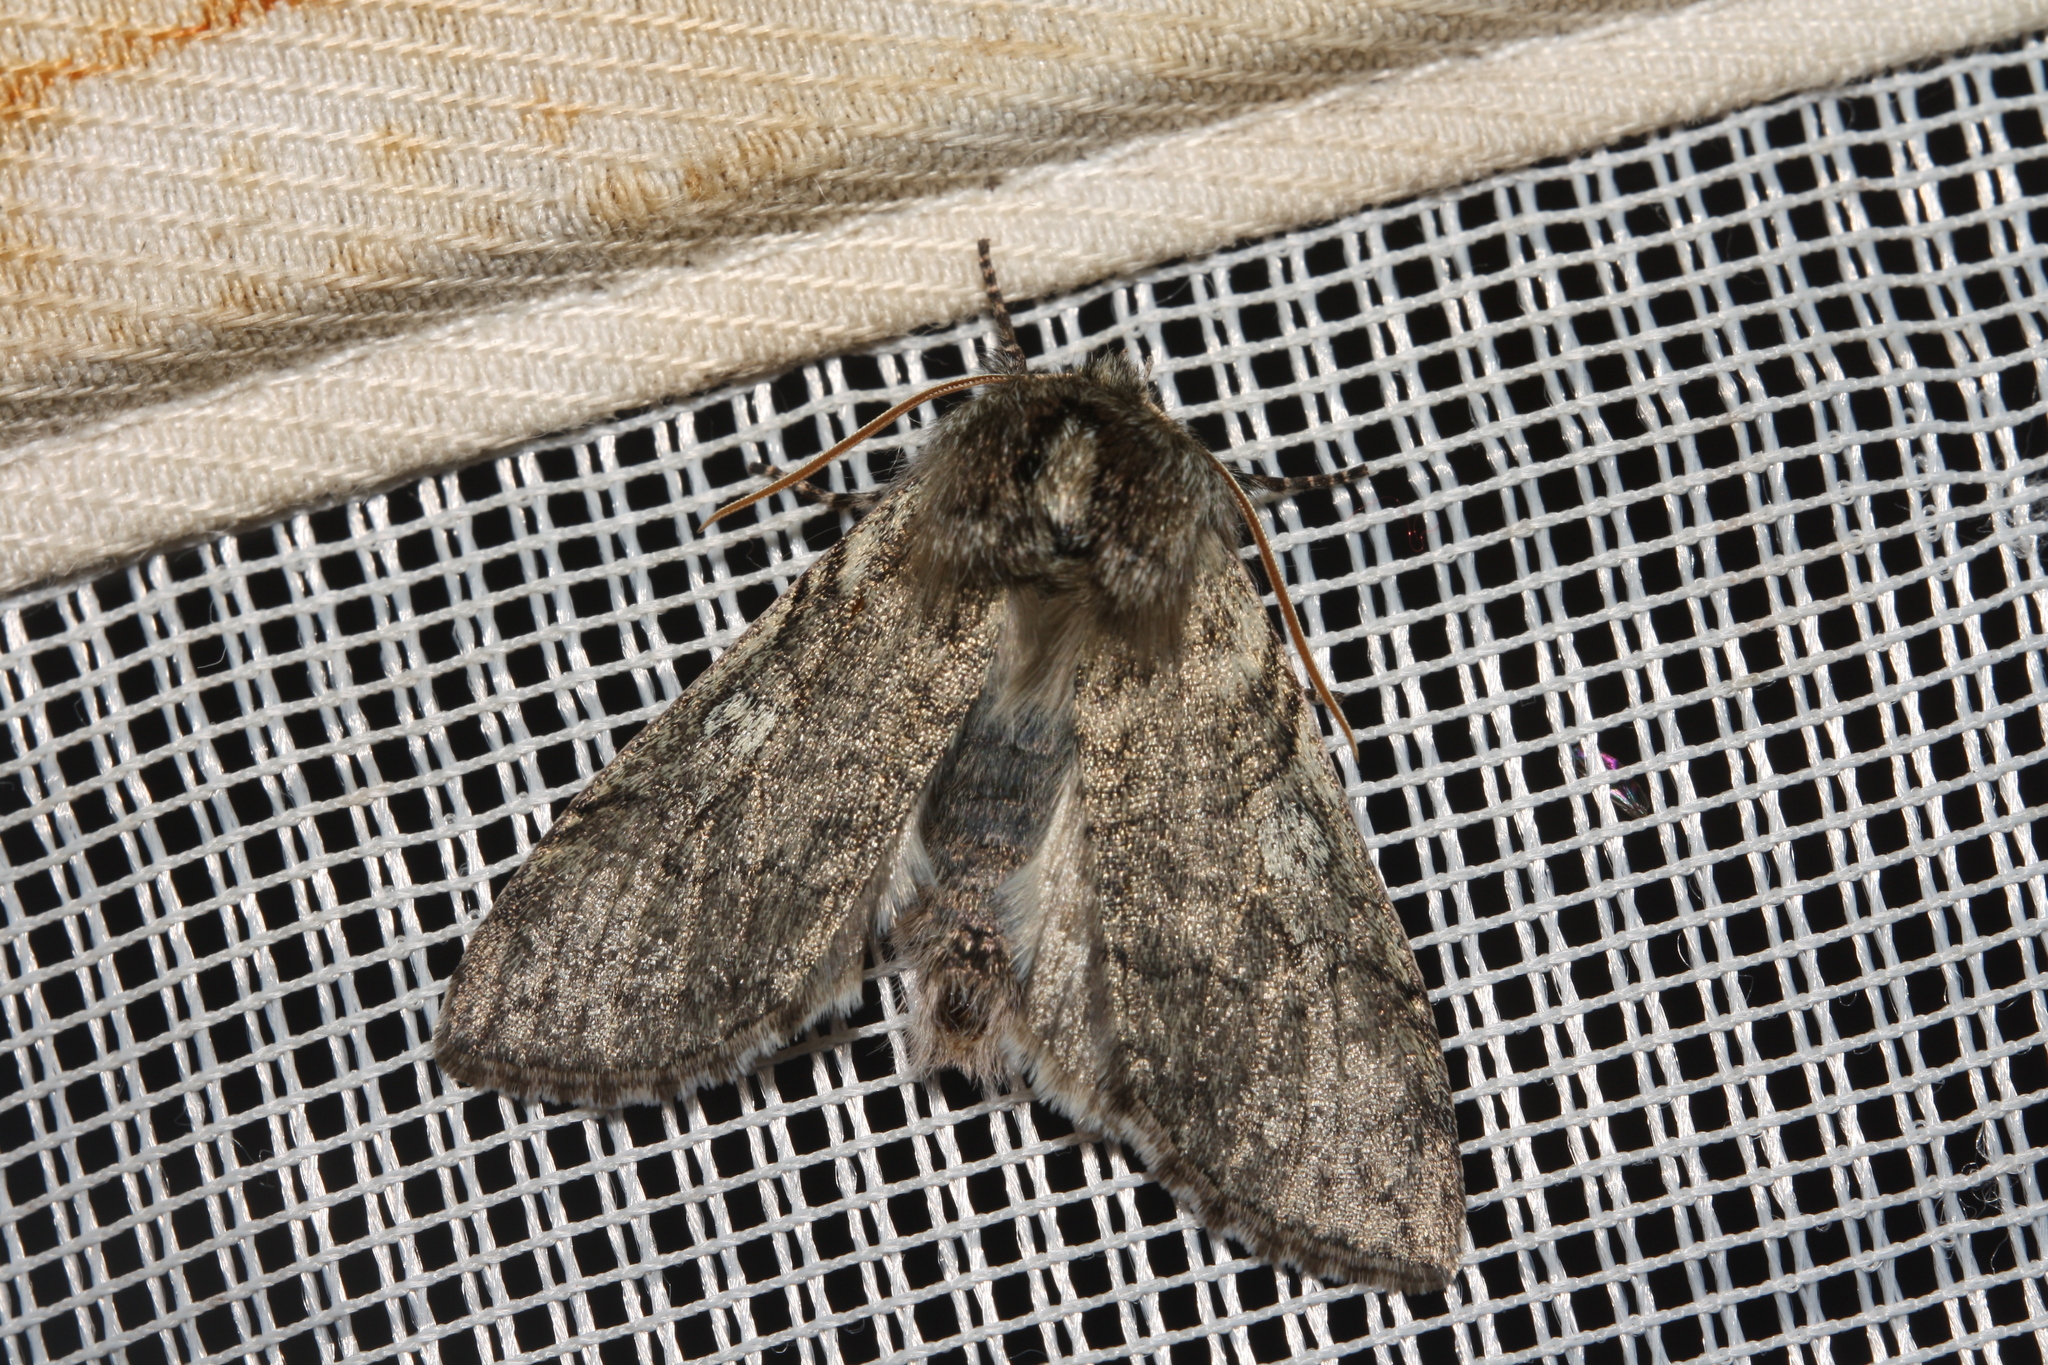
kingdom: Animalia
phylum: Arthropoda
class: Insecta
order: Lepidoptera
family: Drepanidae
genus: Achlya
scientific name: Achlya flavicornis
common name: Yellow horned
